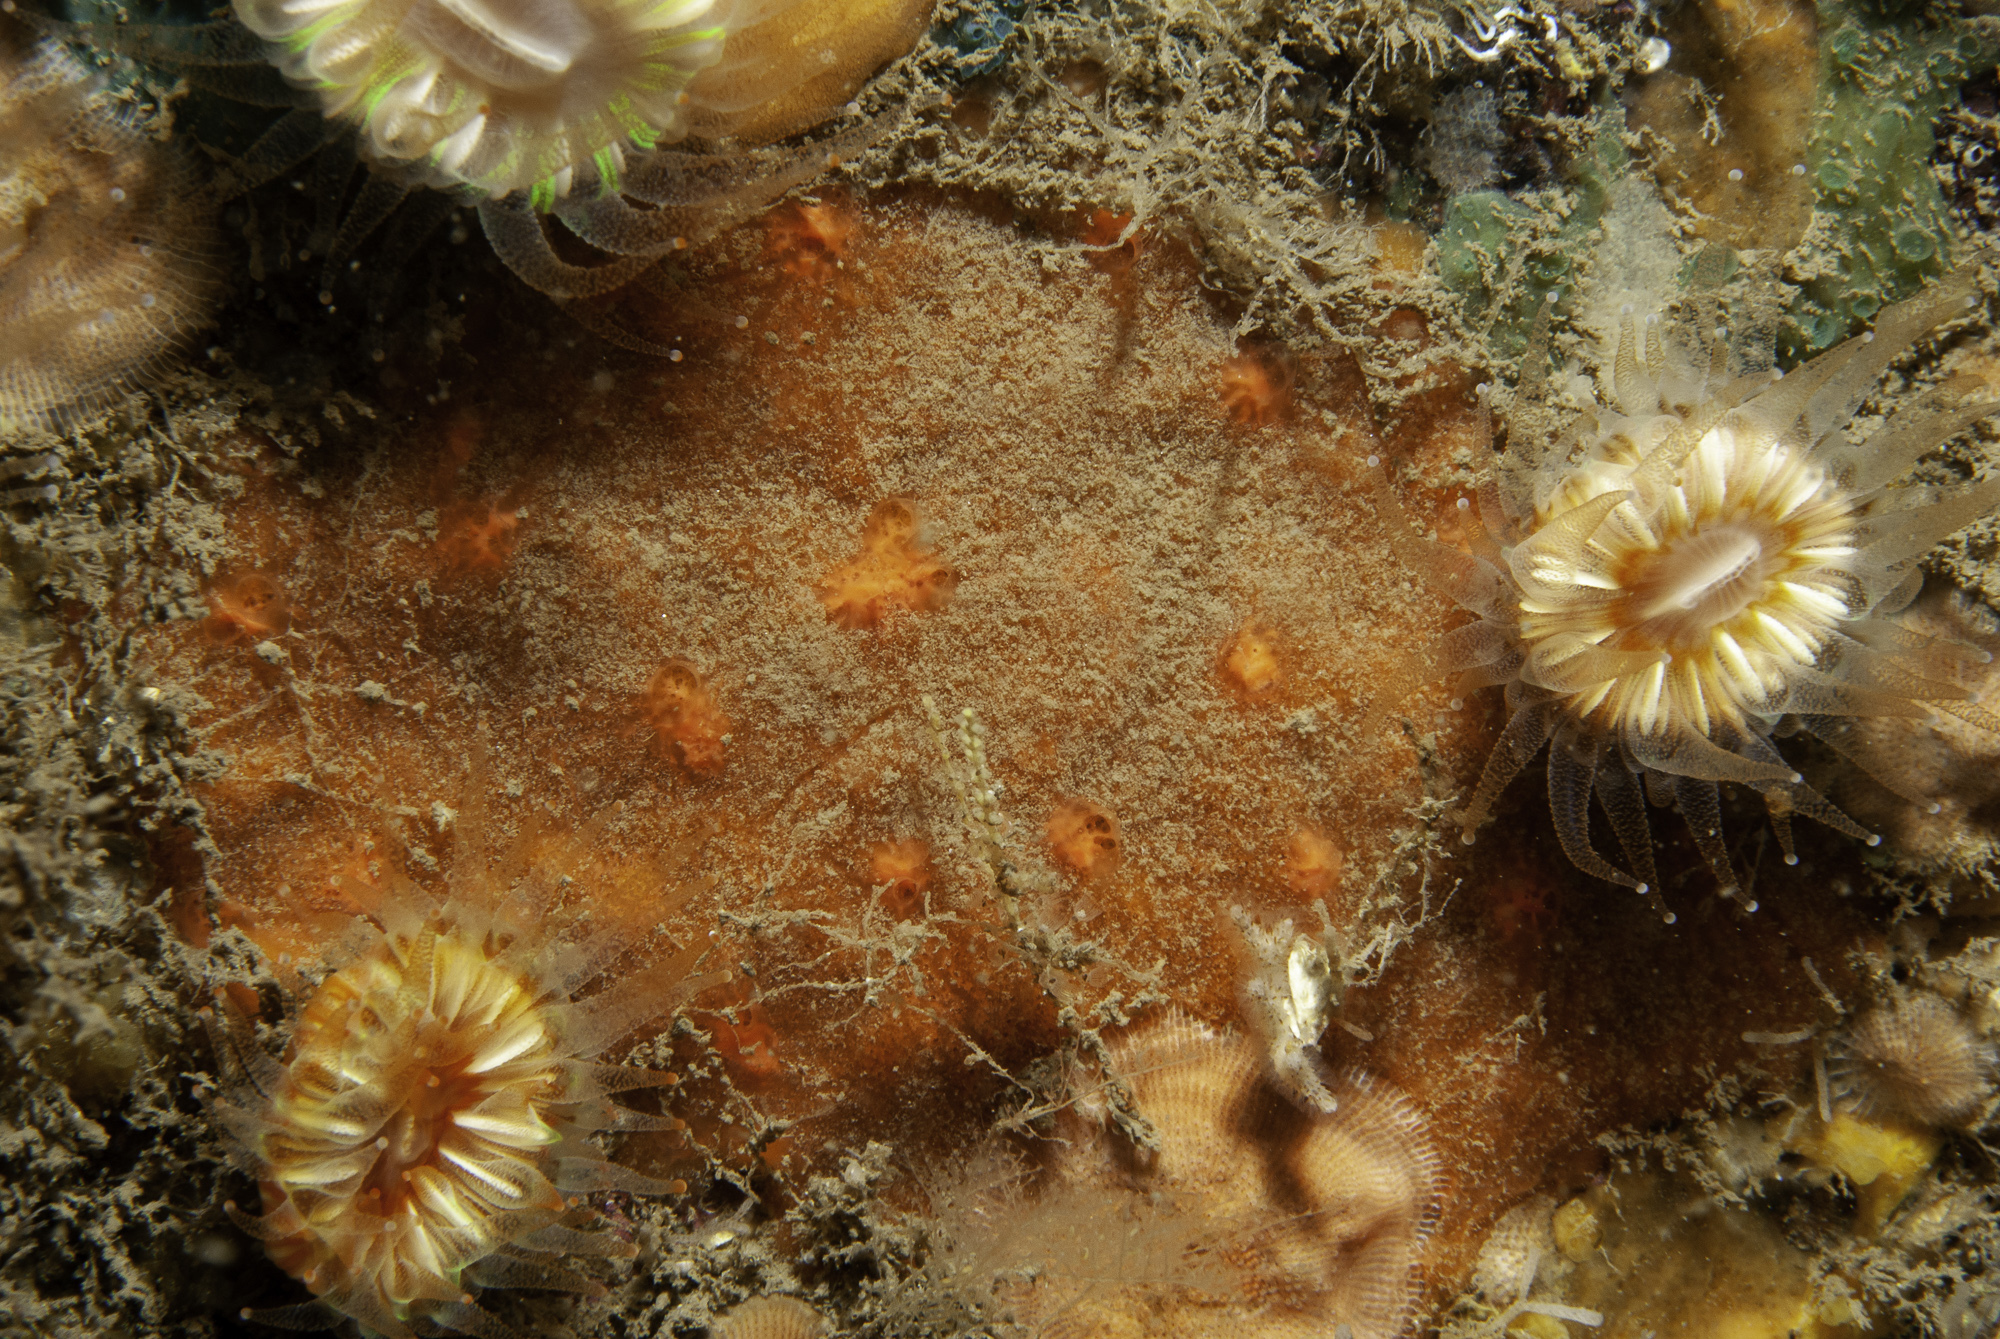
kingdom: Animalia
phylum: Porifera
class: Demospongiae
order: Axinellida
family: Raspailiidae
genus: Hymeraphia
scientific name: Hymeraphia breeni
